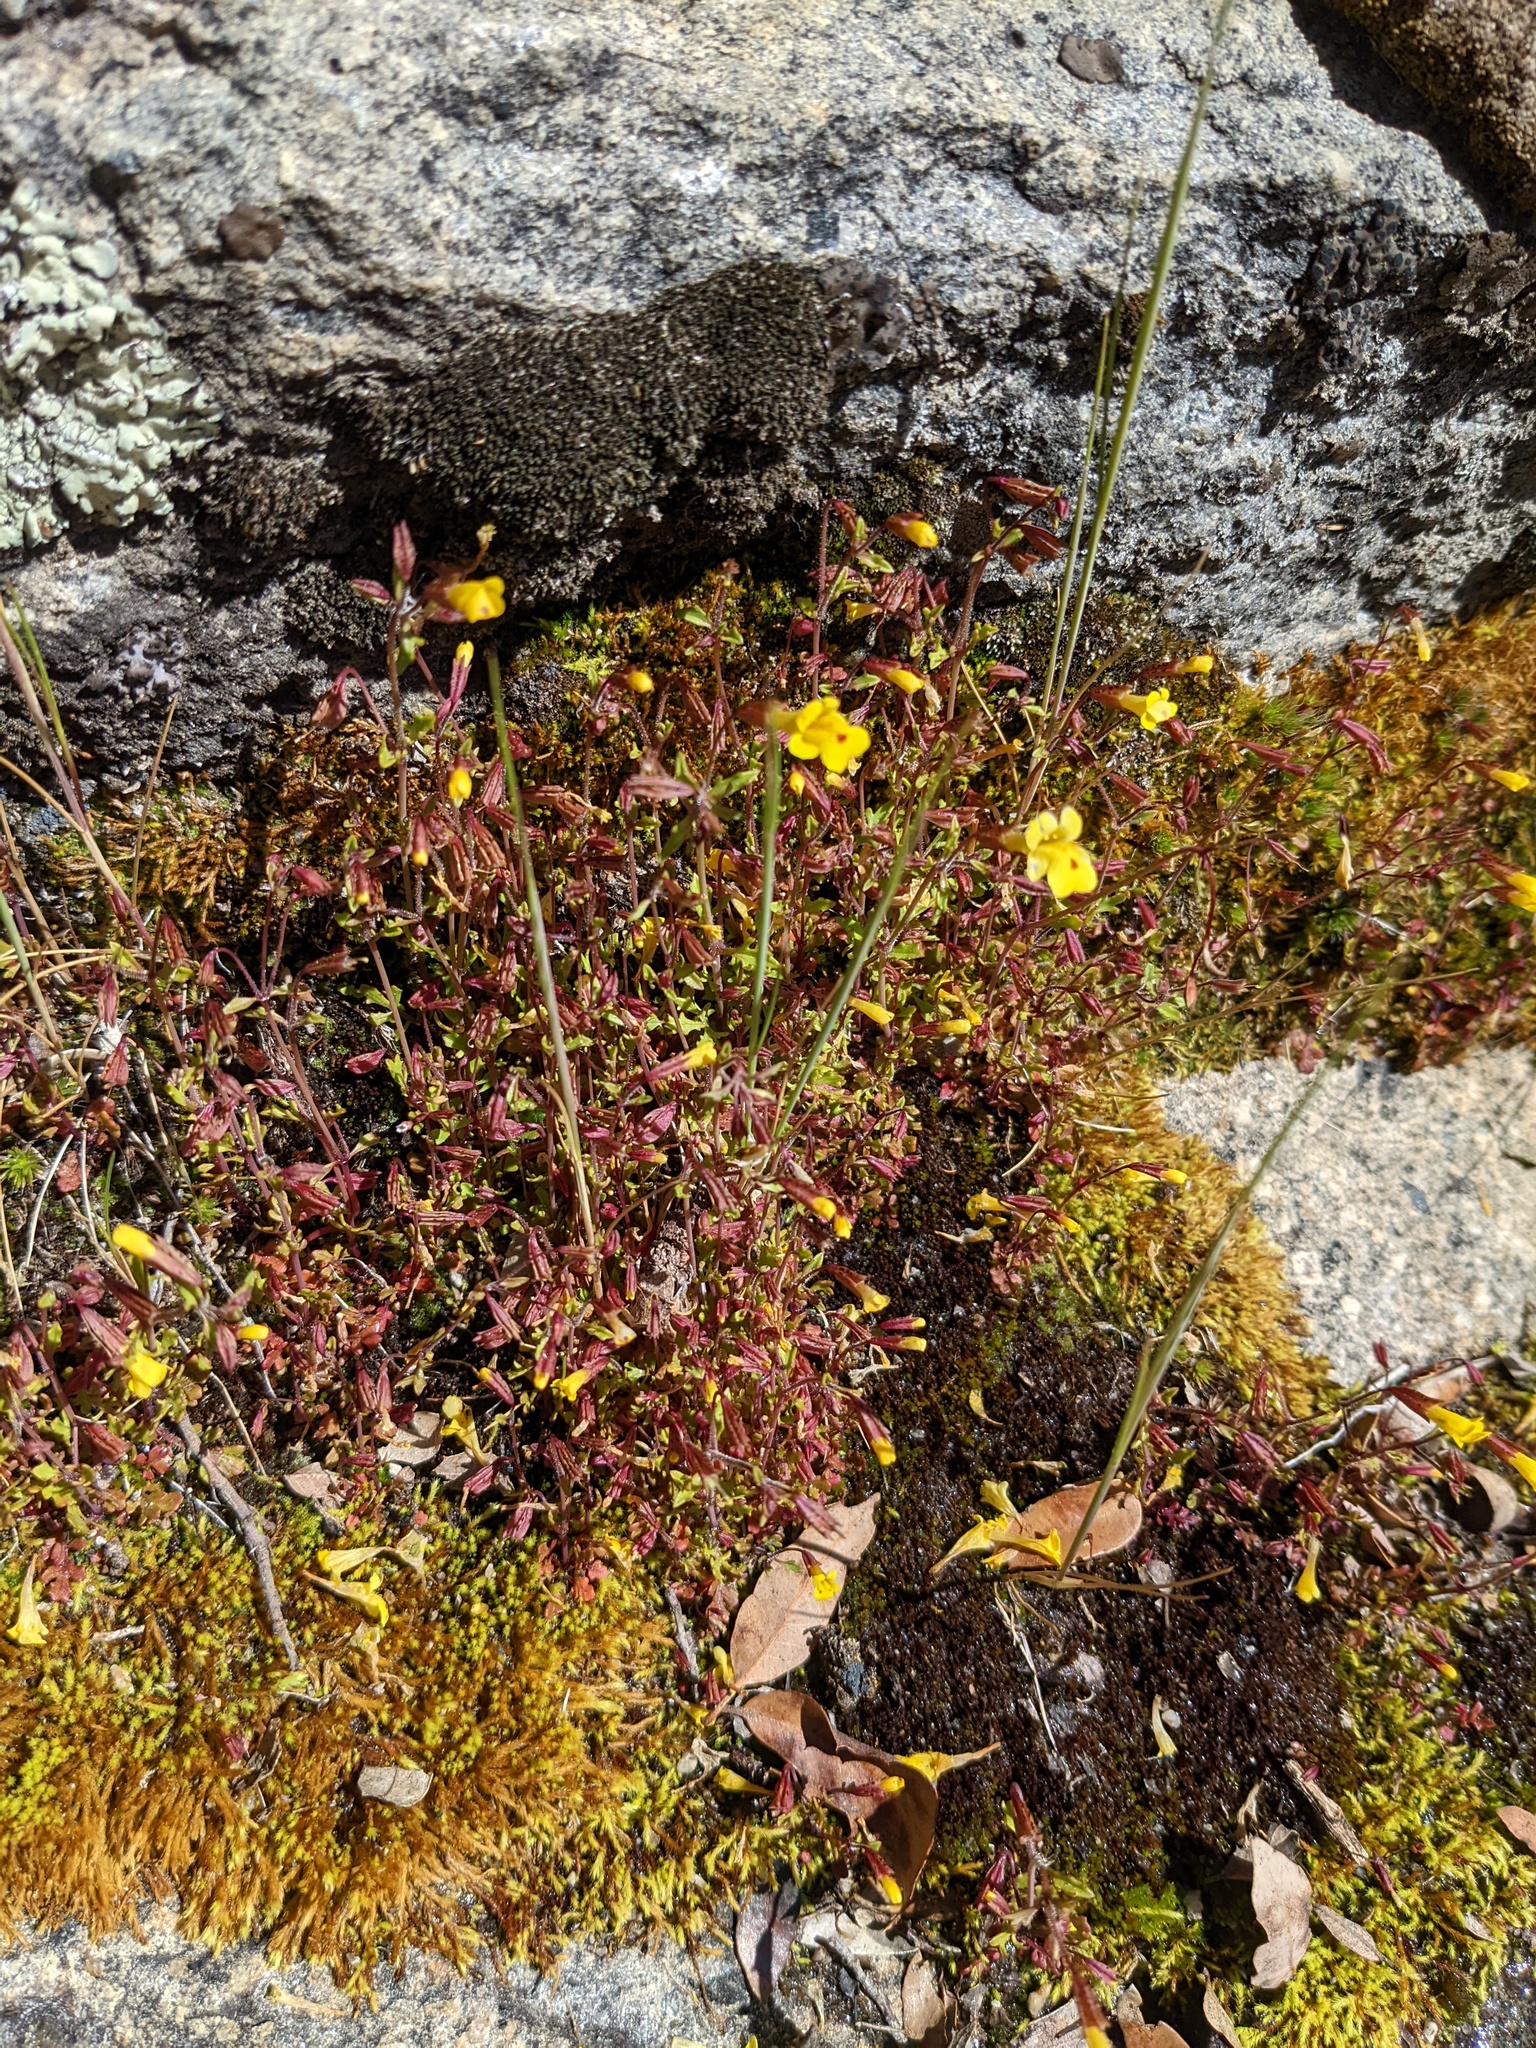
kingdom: Plantae
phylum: Tracheophyta
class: Magnoliopsida
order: Lamiales
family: Phrymaceae
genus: Erythranthe
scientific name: Erythranthe laciniata
